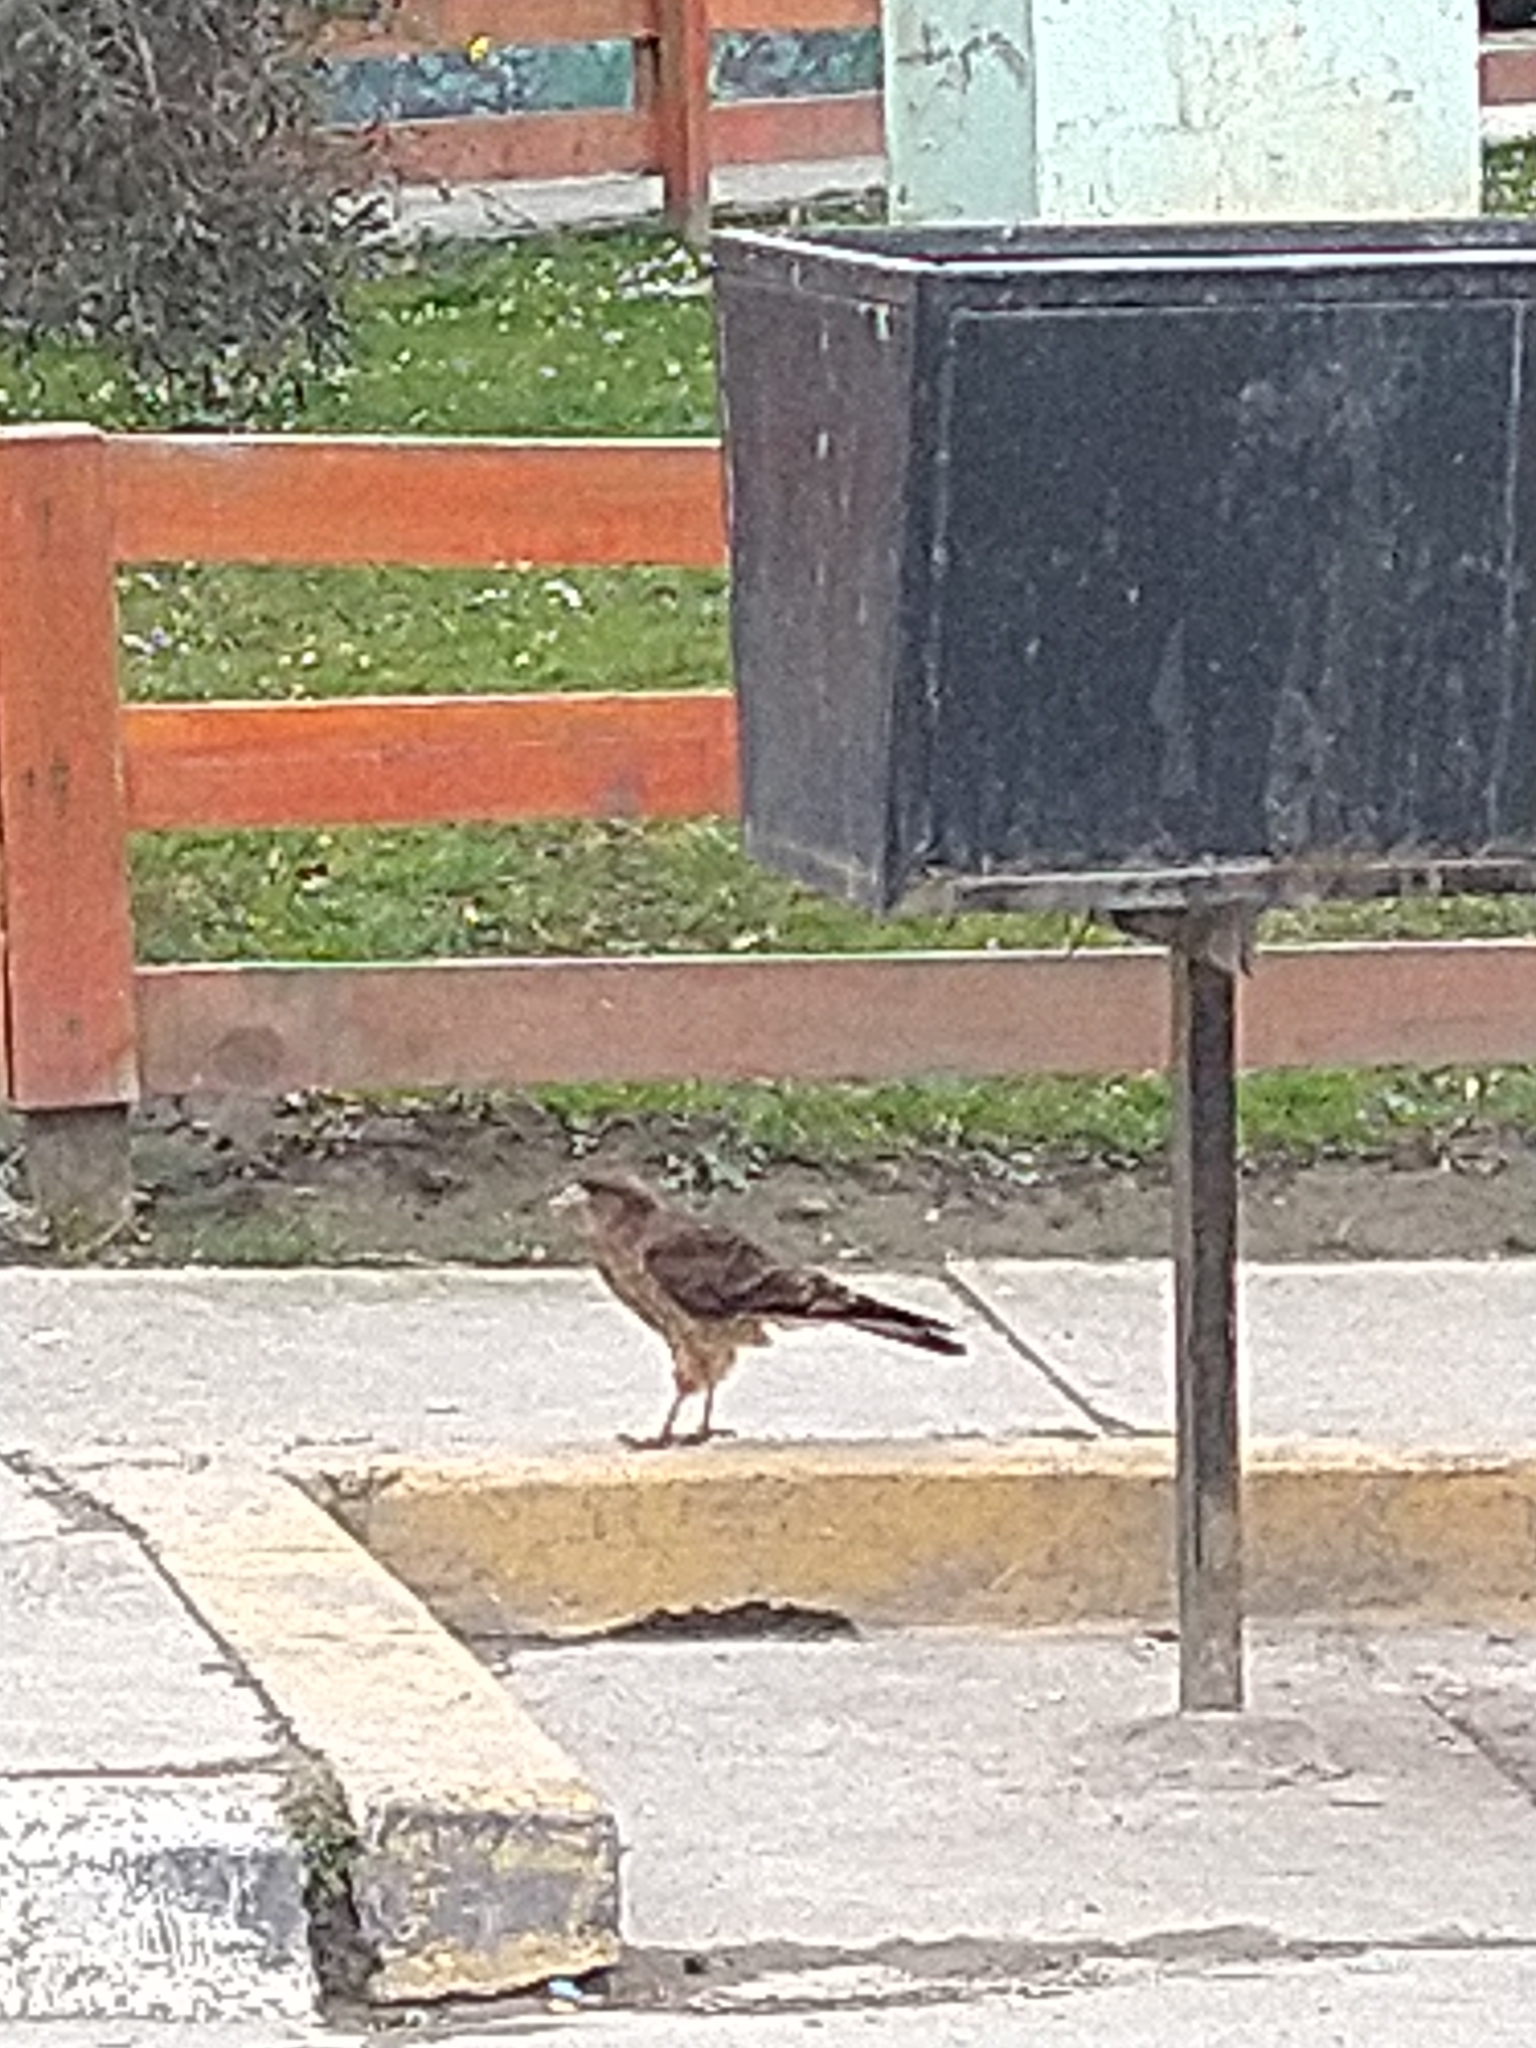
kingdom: Animalia
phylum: Chordata
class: Aves
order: Falconiformes
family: Falconidae
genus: Daptrius
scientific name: Daptrius
